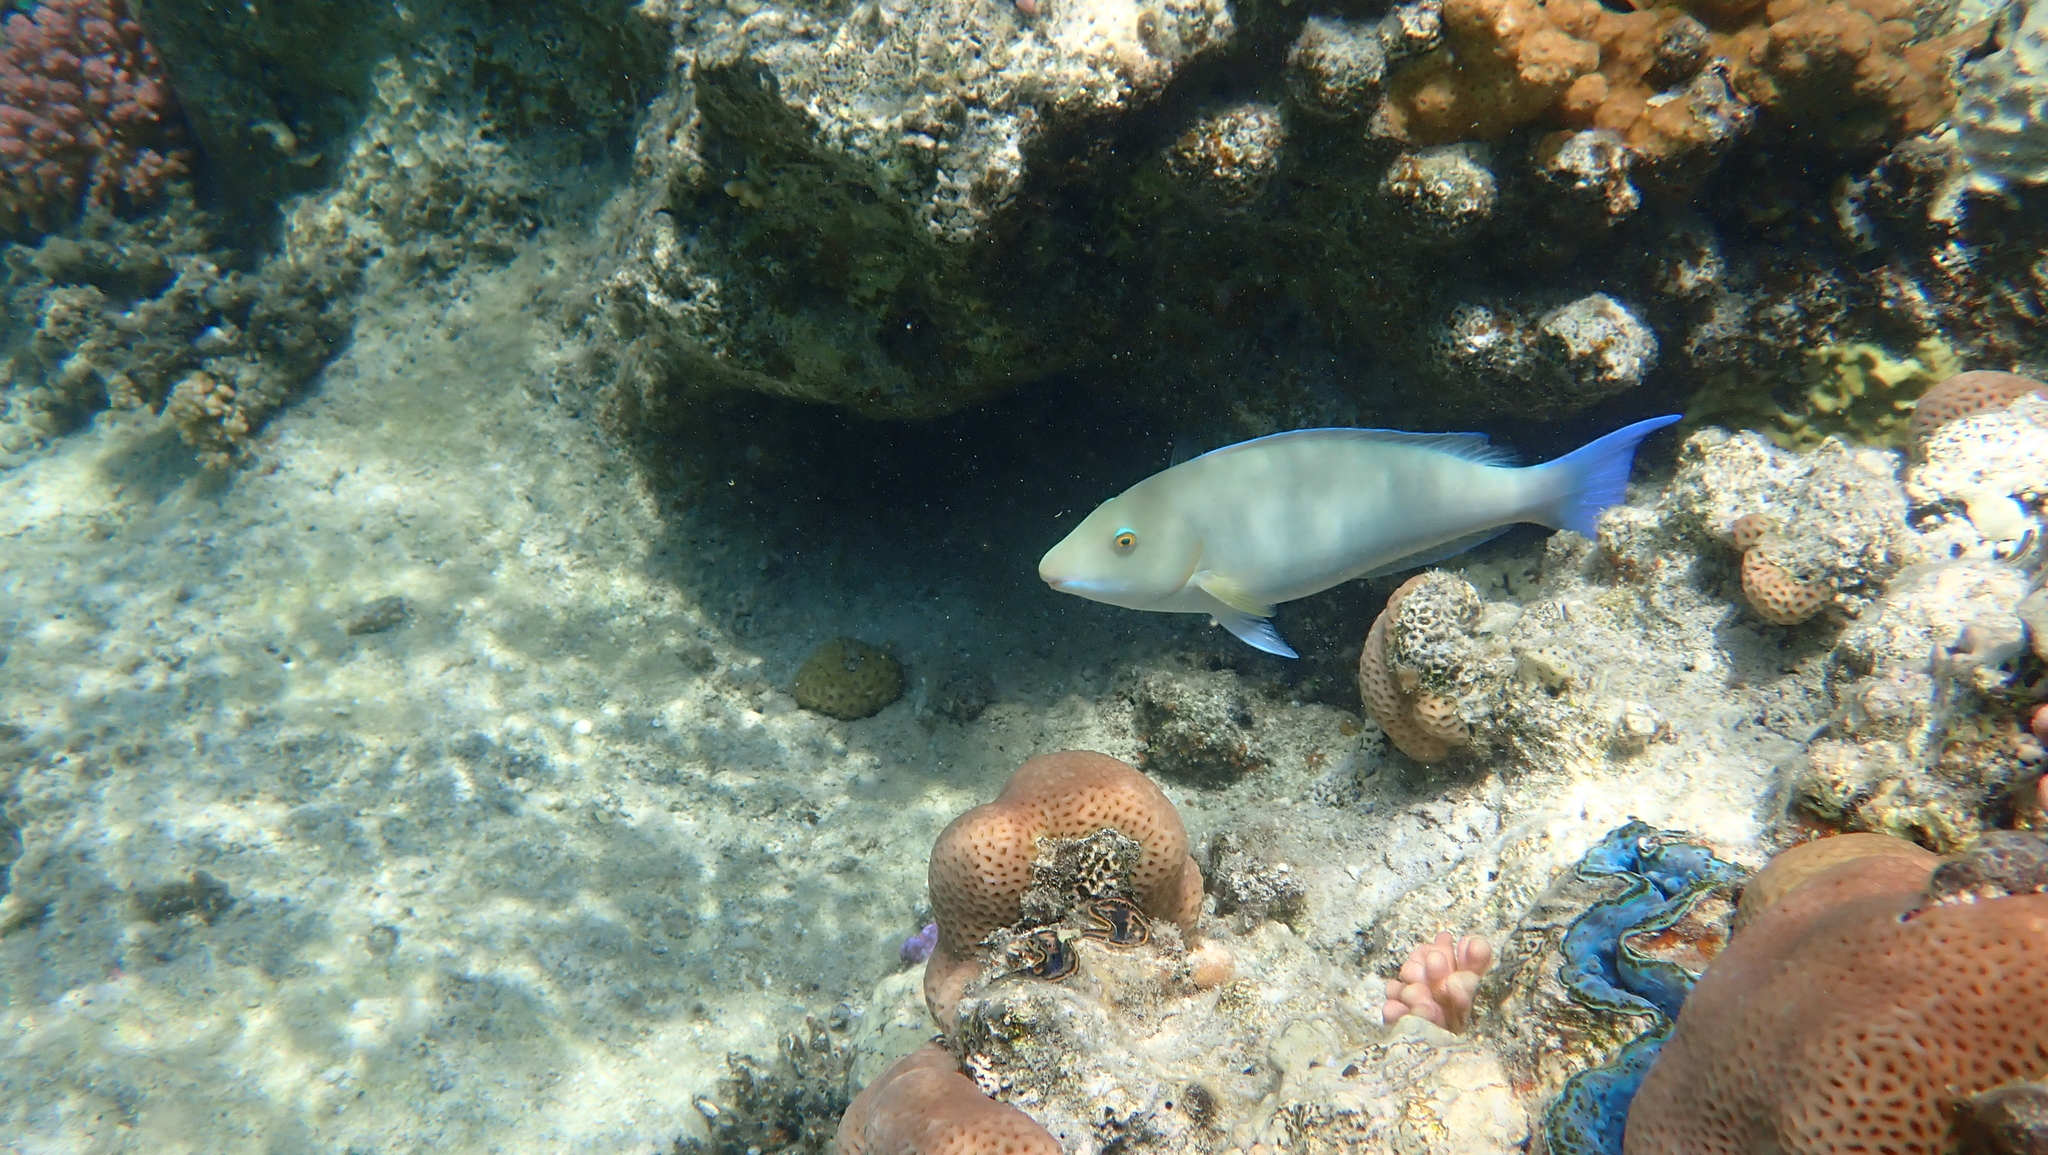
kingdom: Animalia
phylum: Chordata
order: Perciformes
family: Scaridae
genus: Hipposcarus
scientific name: Hipposcarus harid
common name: Candelamoa parrotfish
